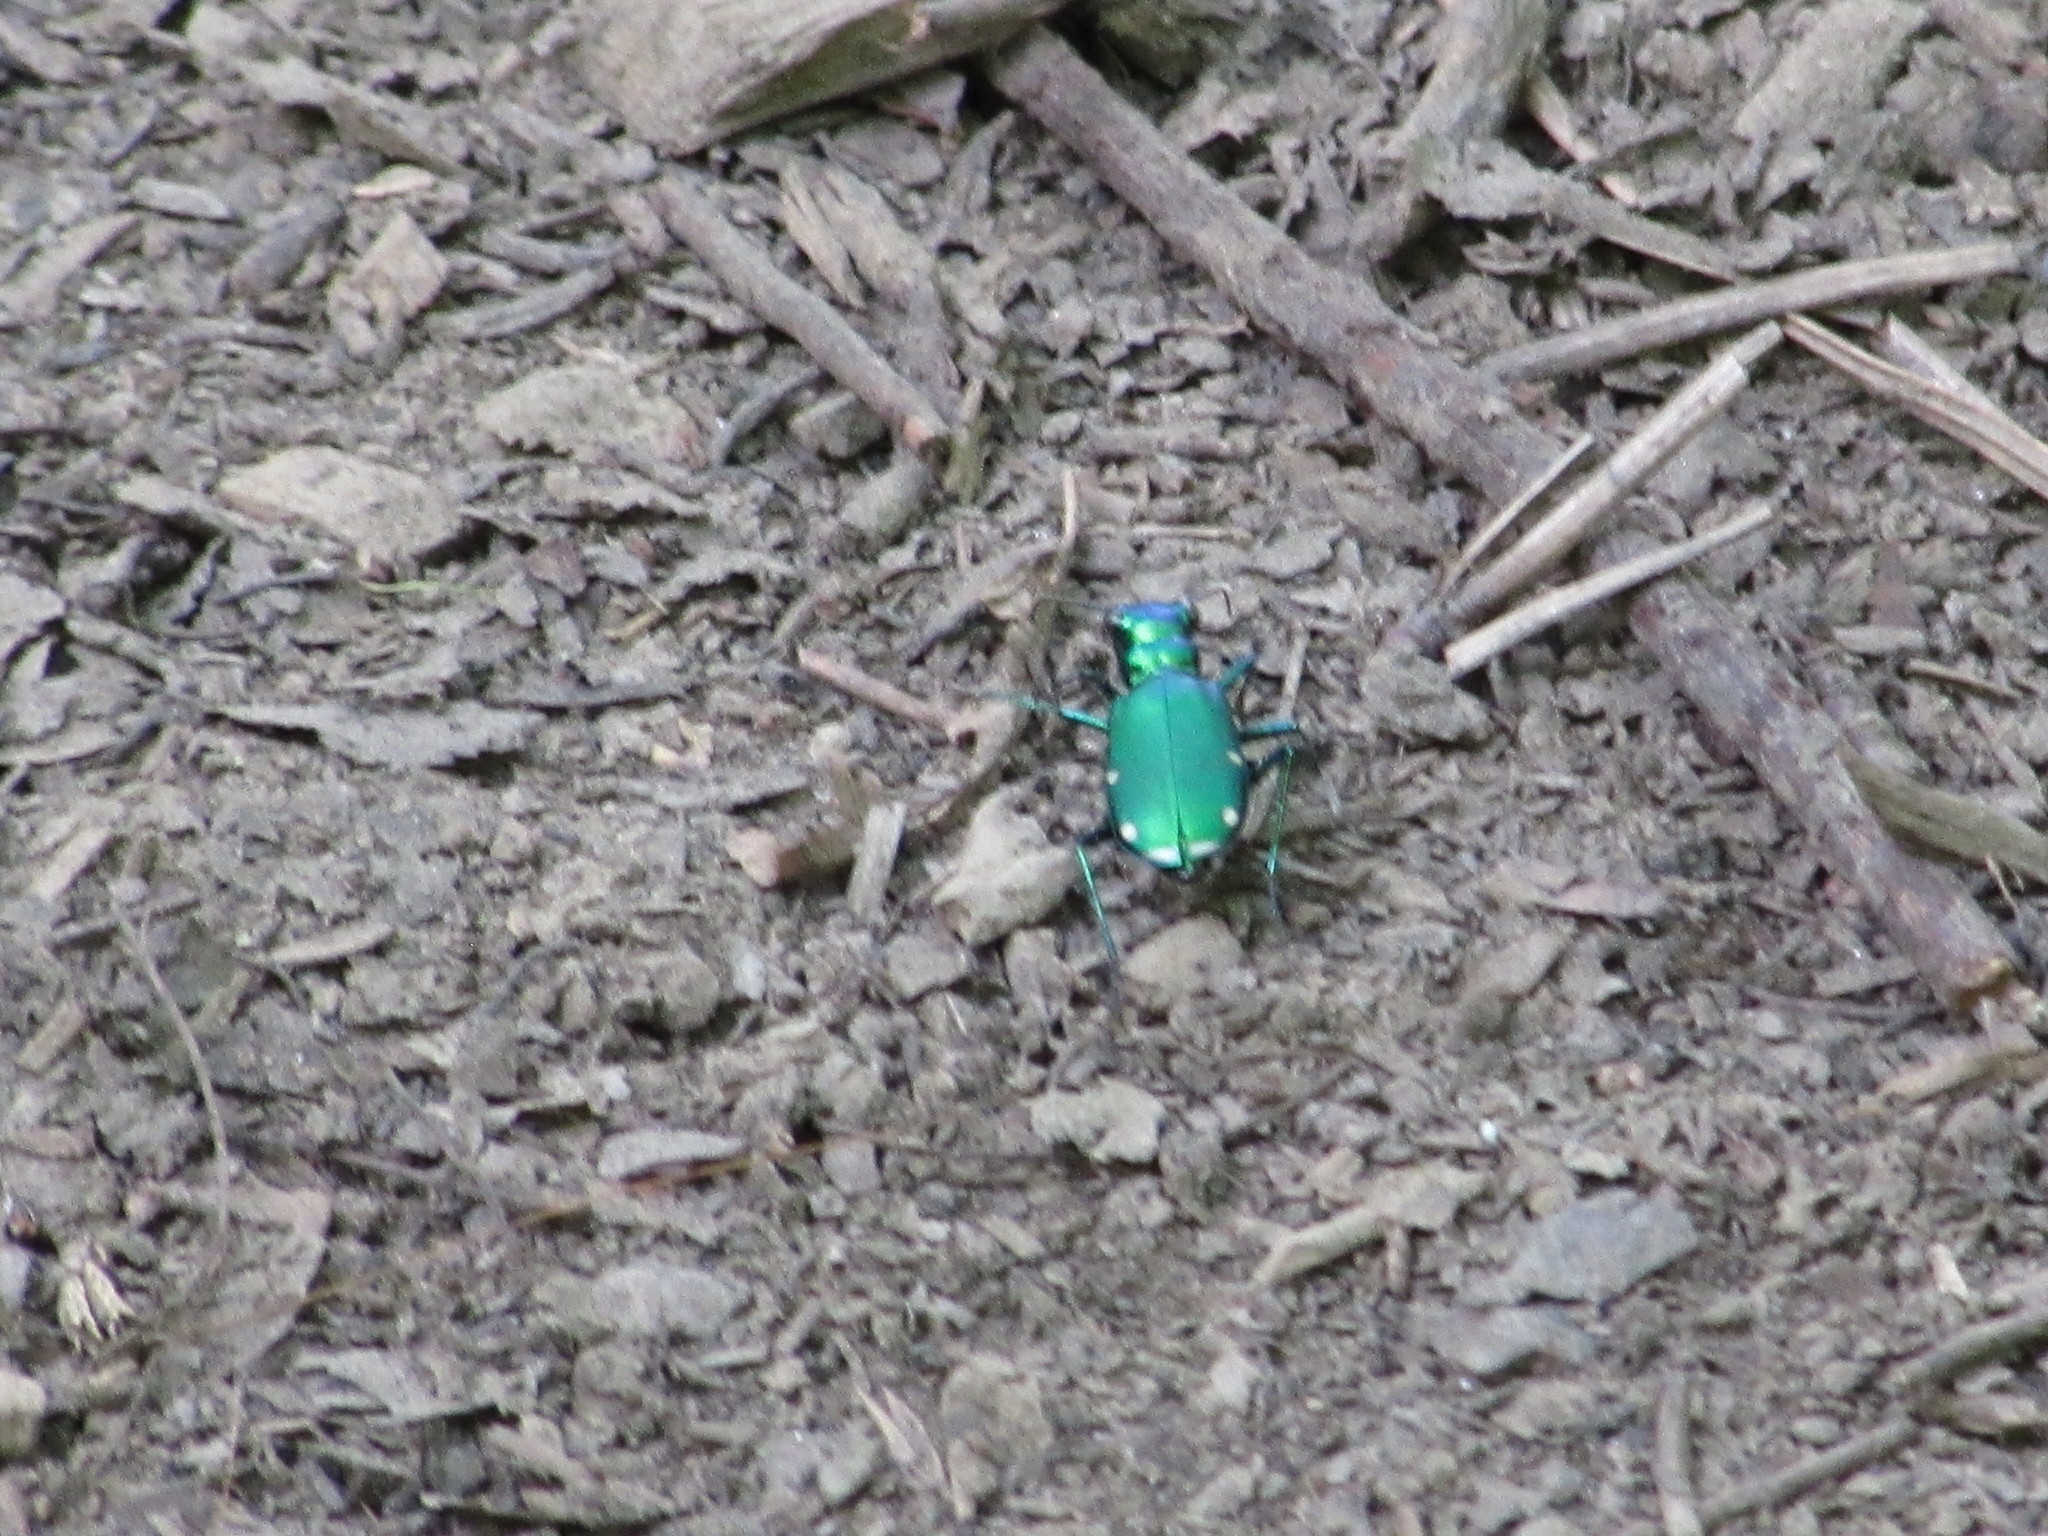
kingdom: Animalia
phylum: Arthropoda
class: Insecta
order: Coleoptera
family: Carabidae
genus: Cicindela
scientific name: Cicindela sexguttata
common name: Six-spotted tiger beetle
